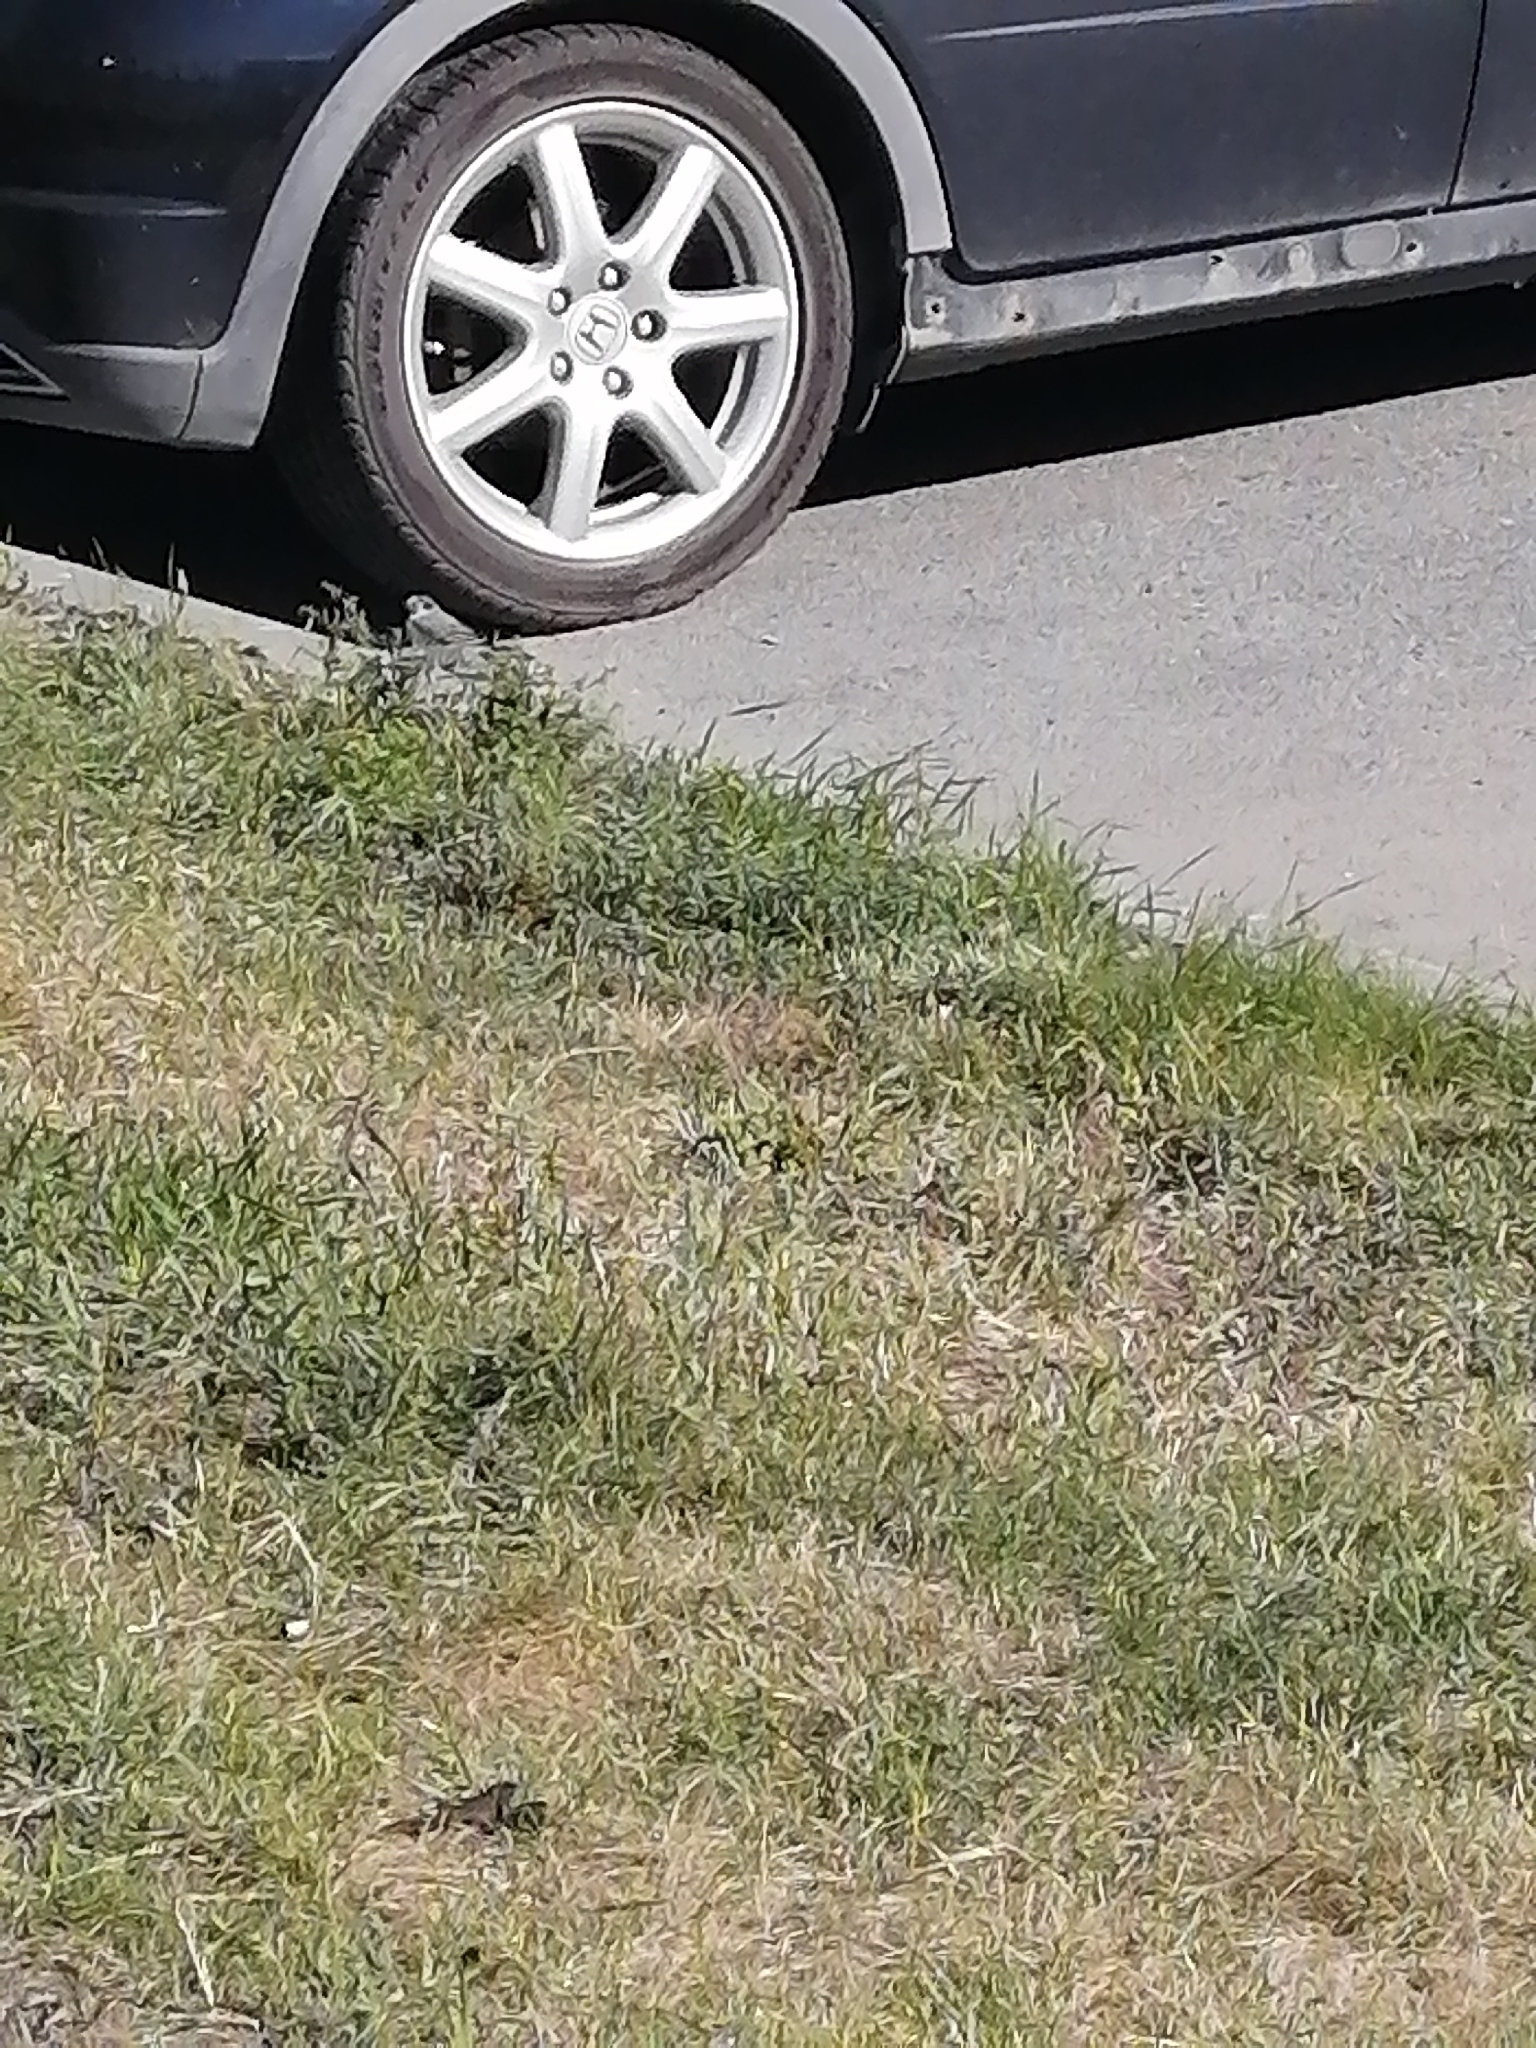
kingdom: Animalia
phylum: Chordata
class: Aves
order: Passeriformes
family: Motacillidae
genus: Motacilla
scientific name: Motacilla alba
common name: White wagtail
